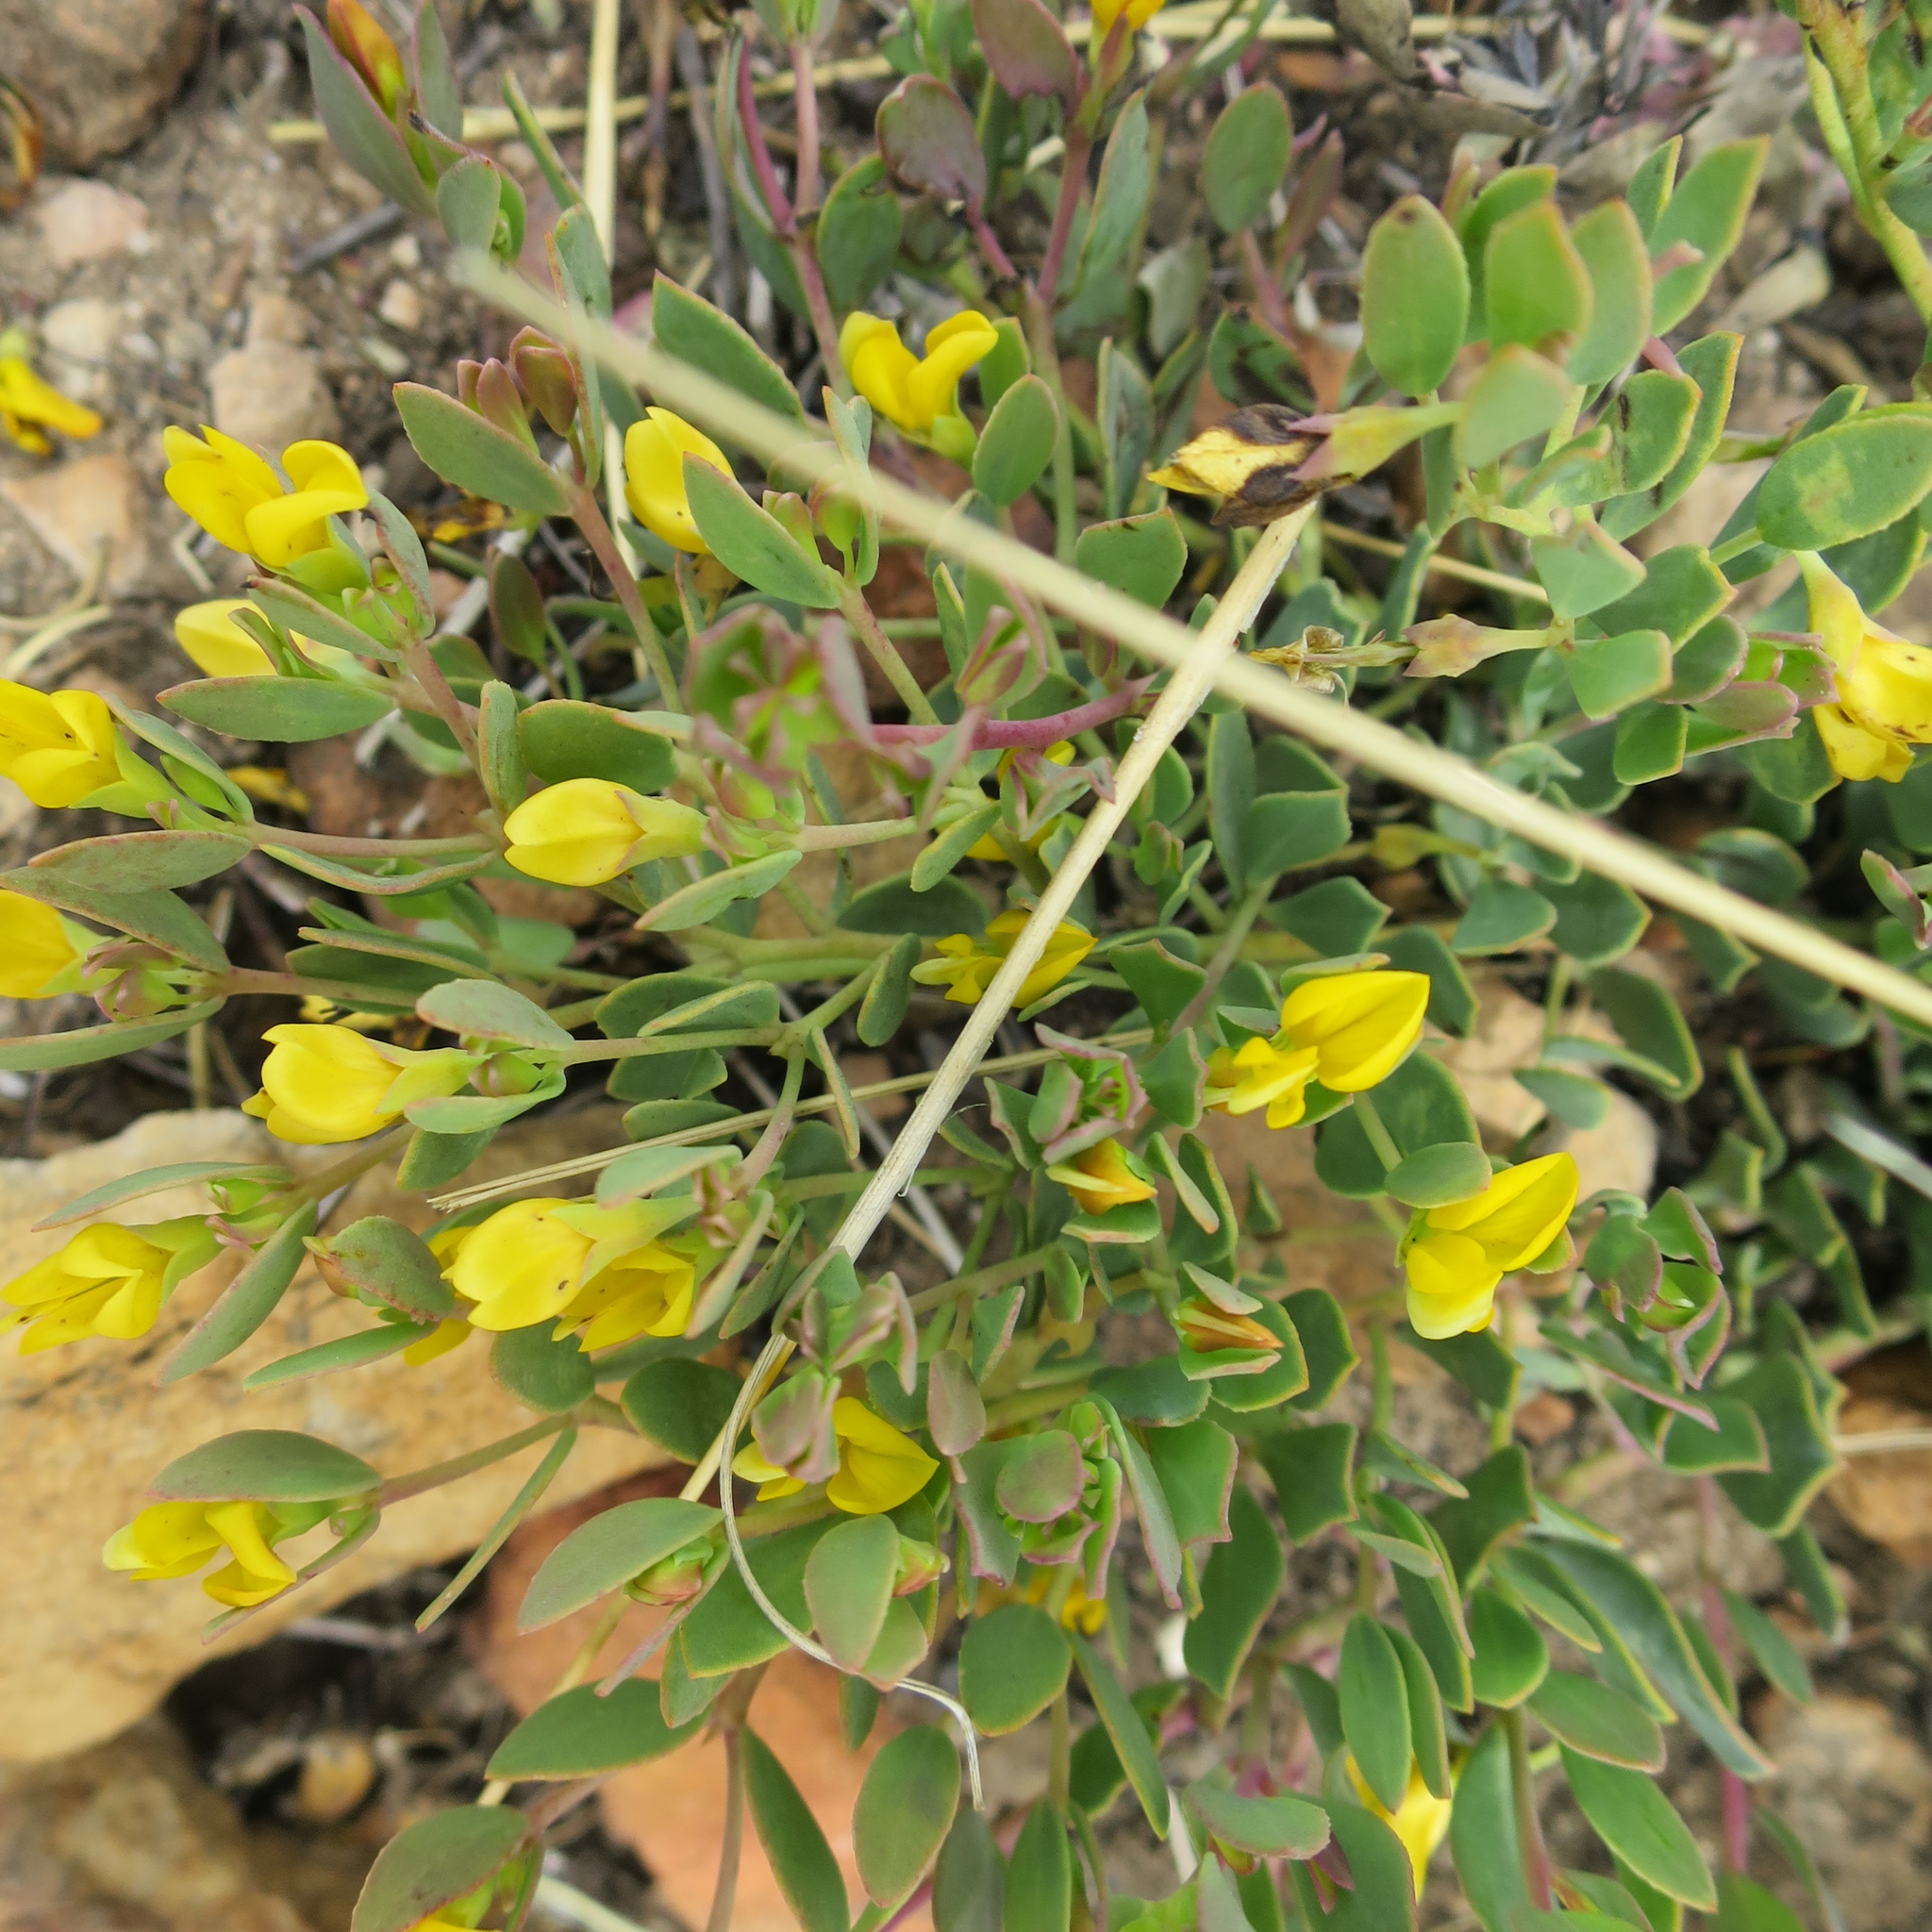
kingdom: Plantae
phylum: Tracheophyta
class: Magnoliopsida
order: Fabales
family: Fabaceae
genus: Rafnia
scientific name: Rafnia rostrata
